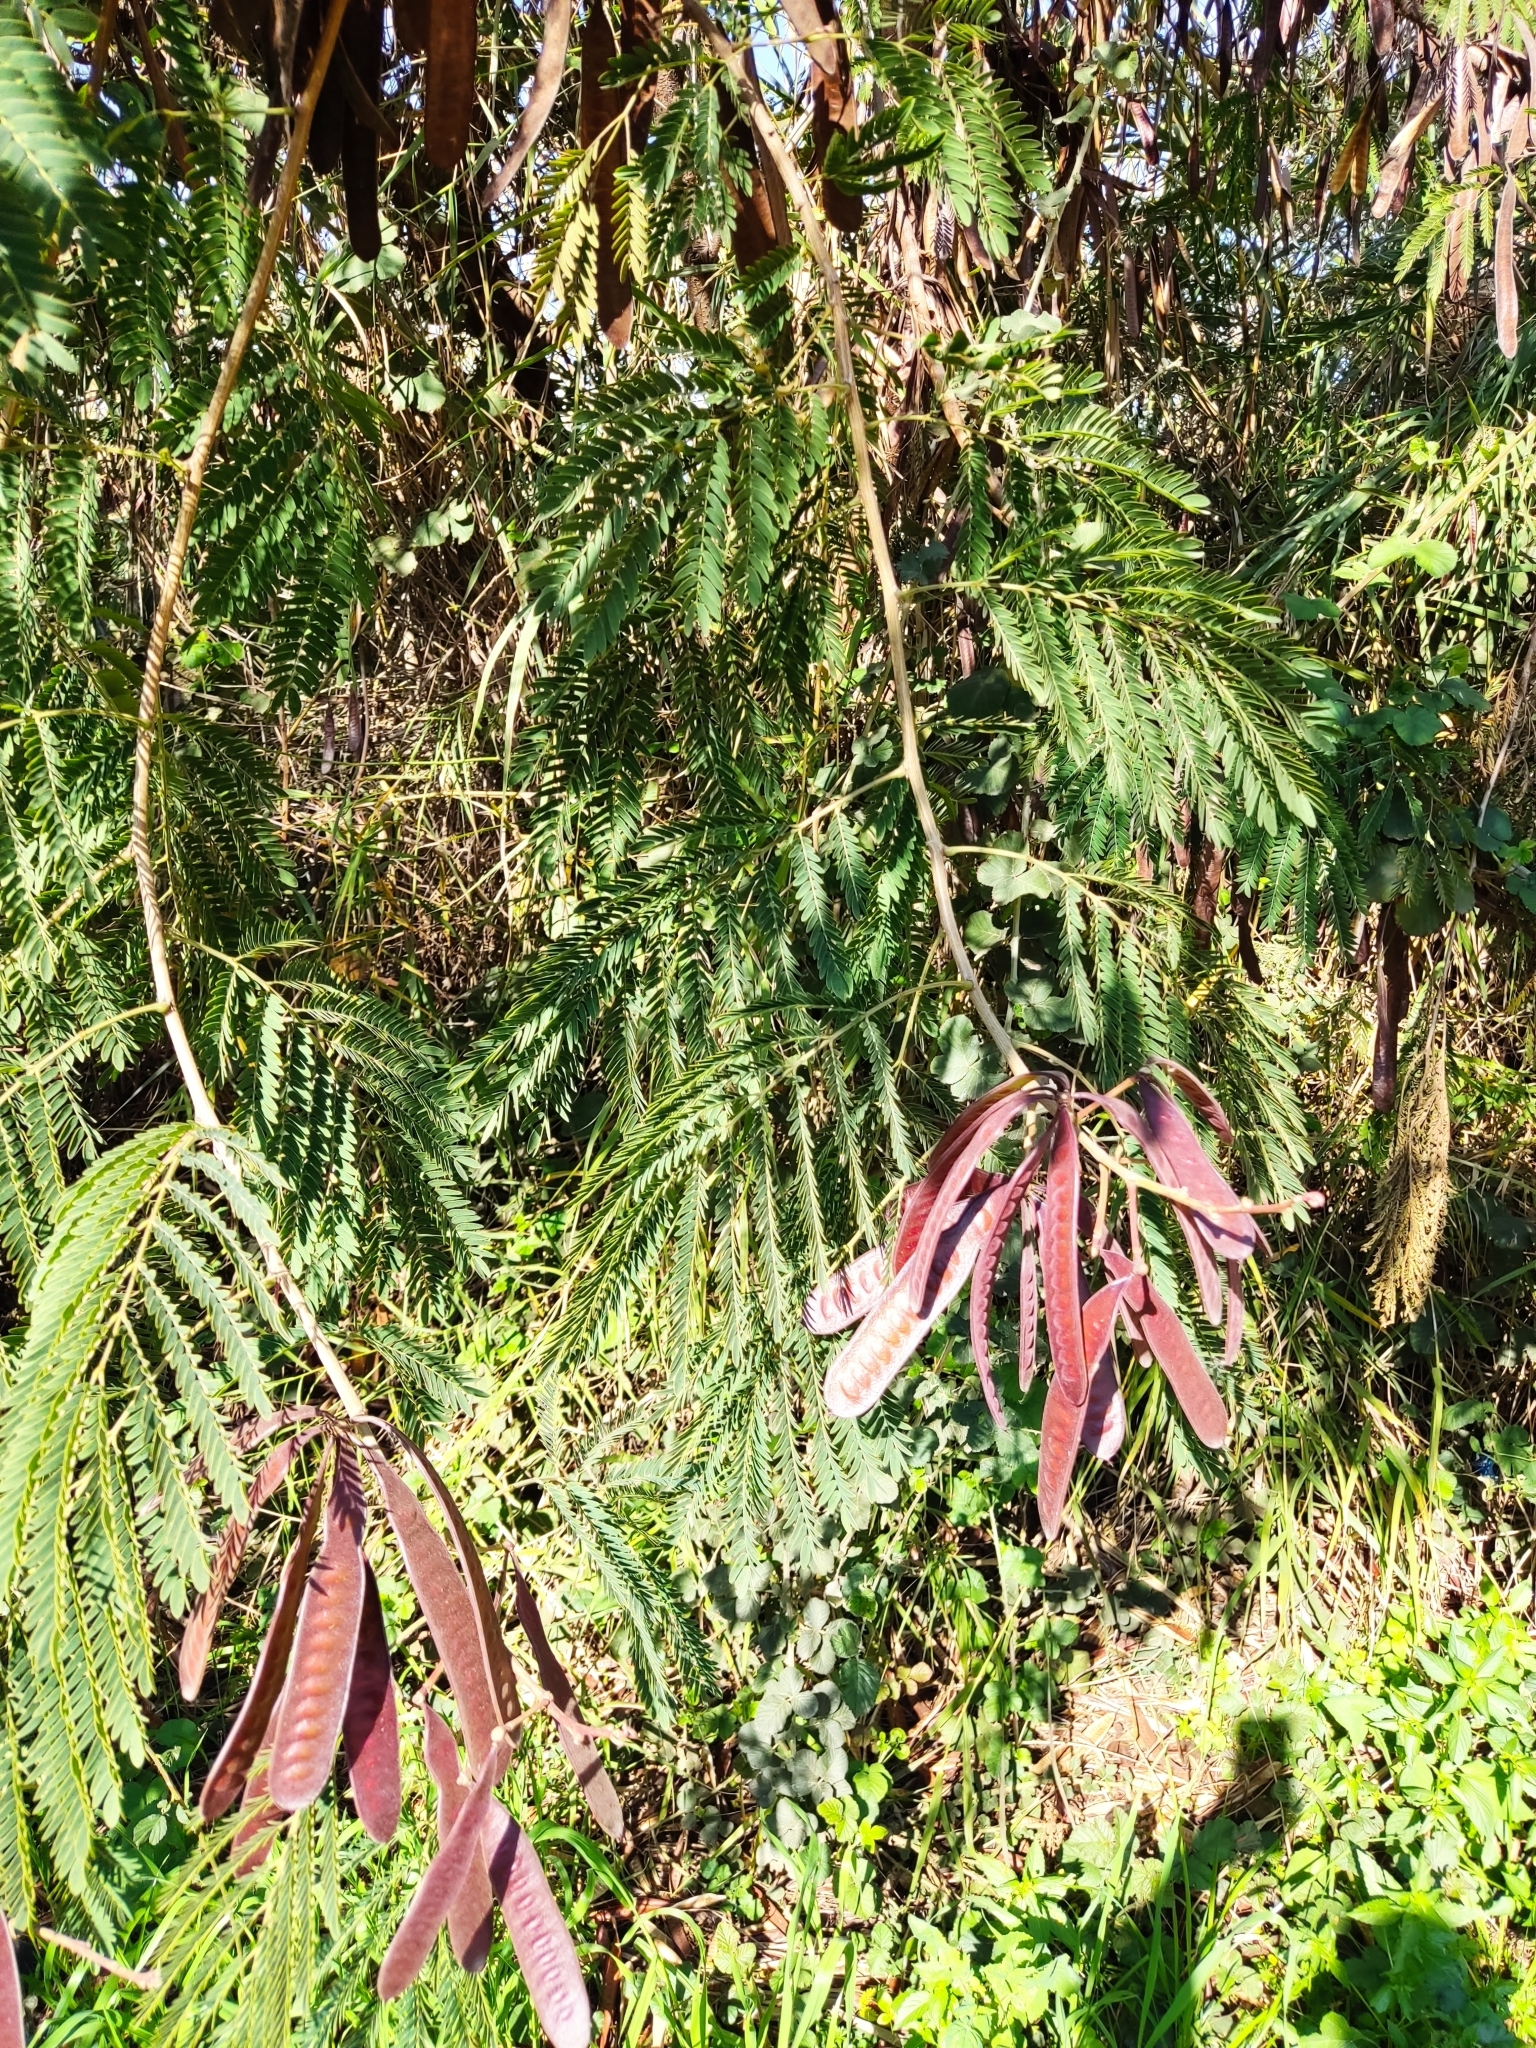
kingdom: Plantae
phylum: Tracheophyta
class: Magnoliopsida
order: Fabales
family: Fabaceae
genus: Leucaena
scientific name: Leucaena leucocephala
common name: White leadtree
